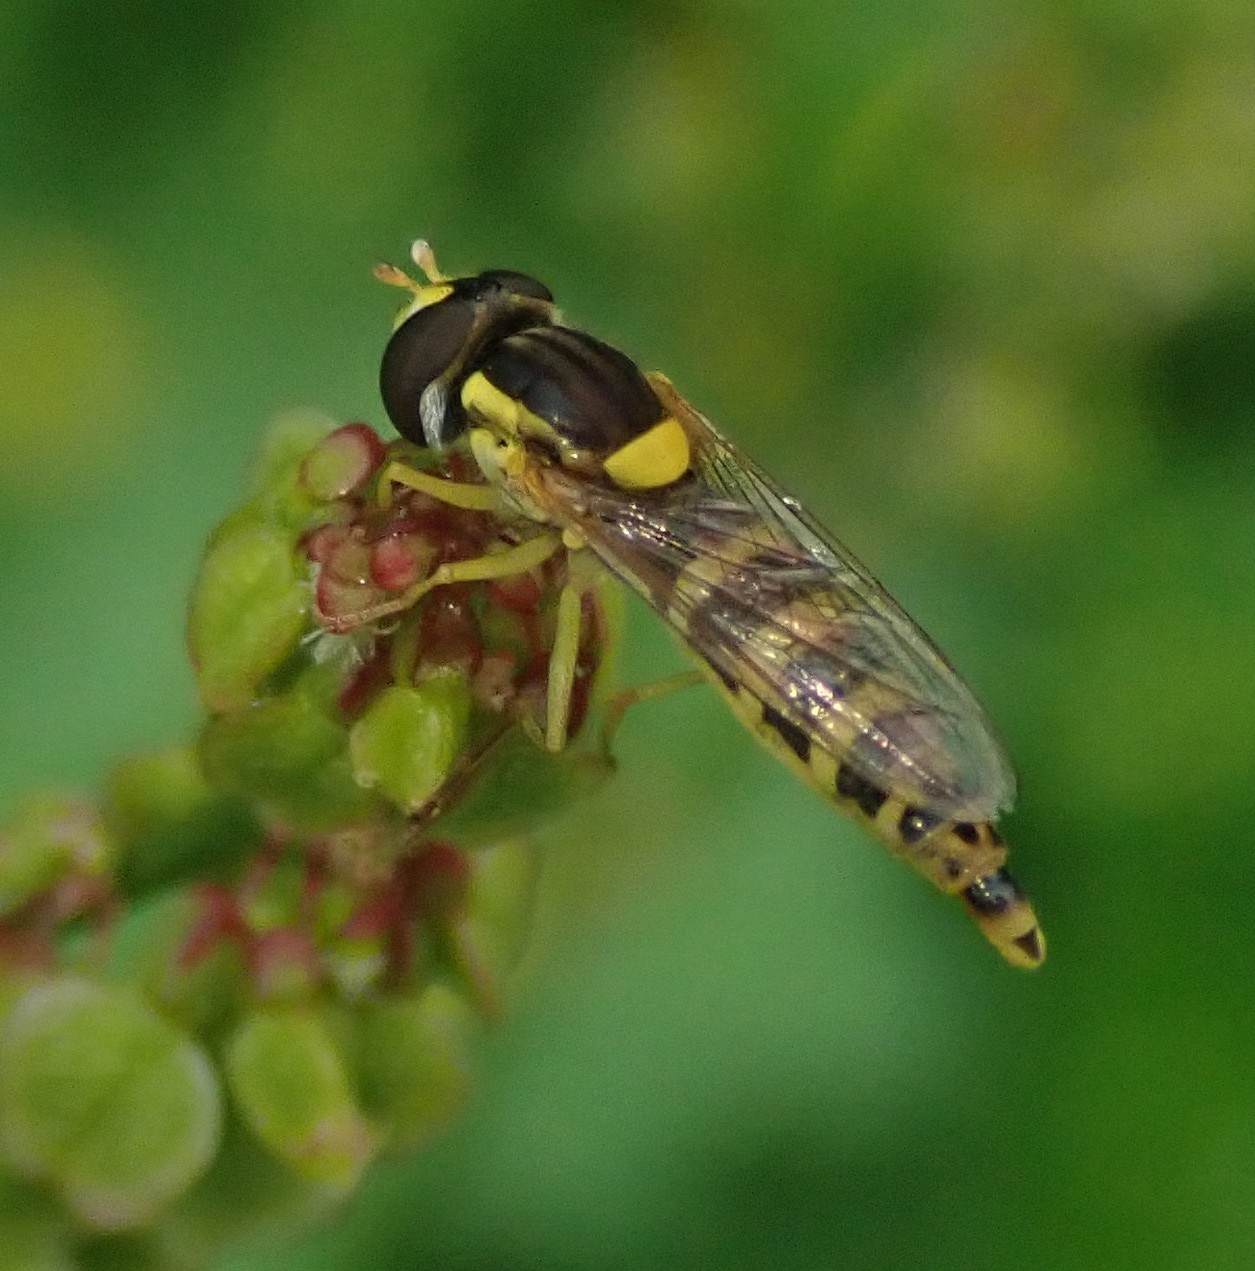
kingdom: Animalia
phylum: Arthropoda
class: Insecta
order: Diptera
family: Syrphidae
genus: Sphaerophoria
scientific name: Sphaerophoria
